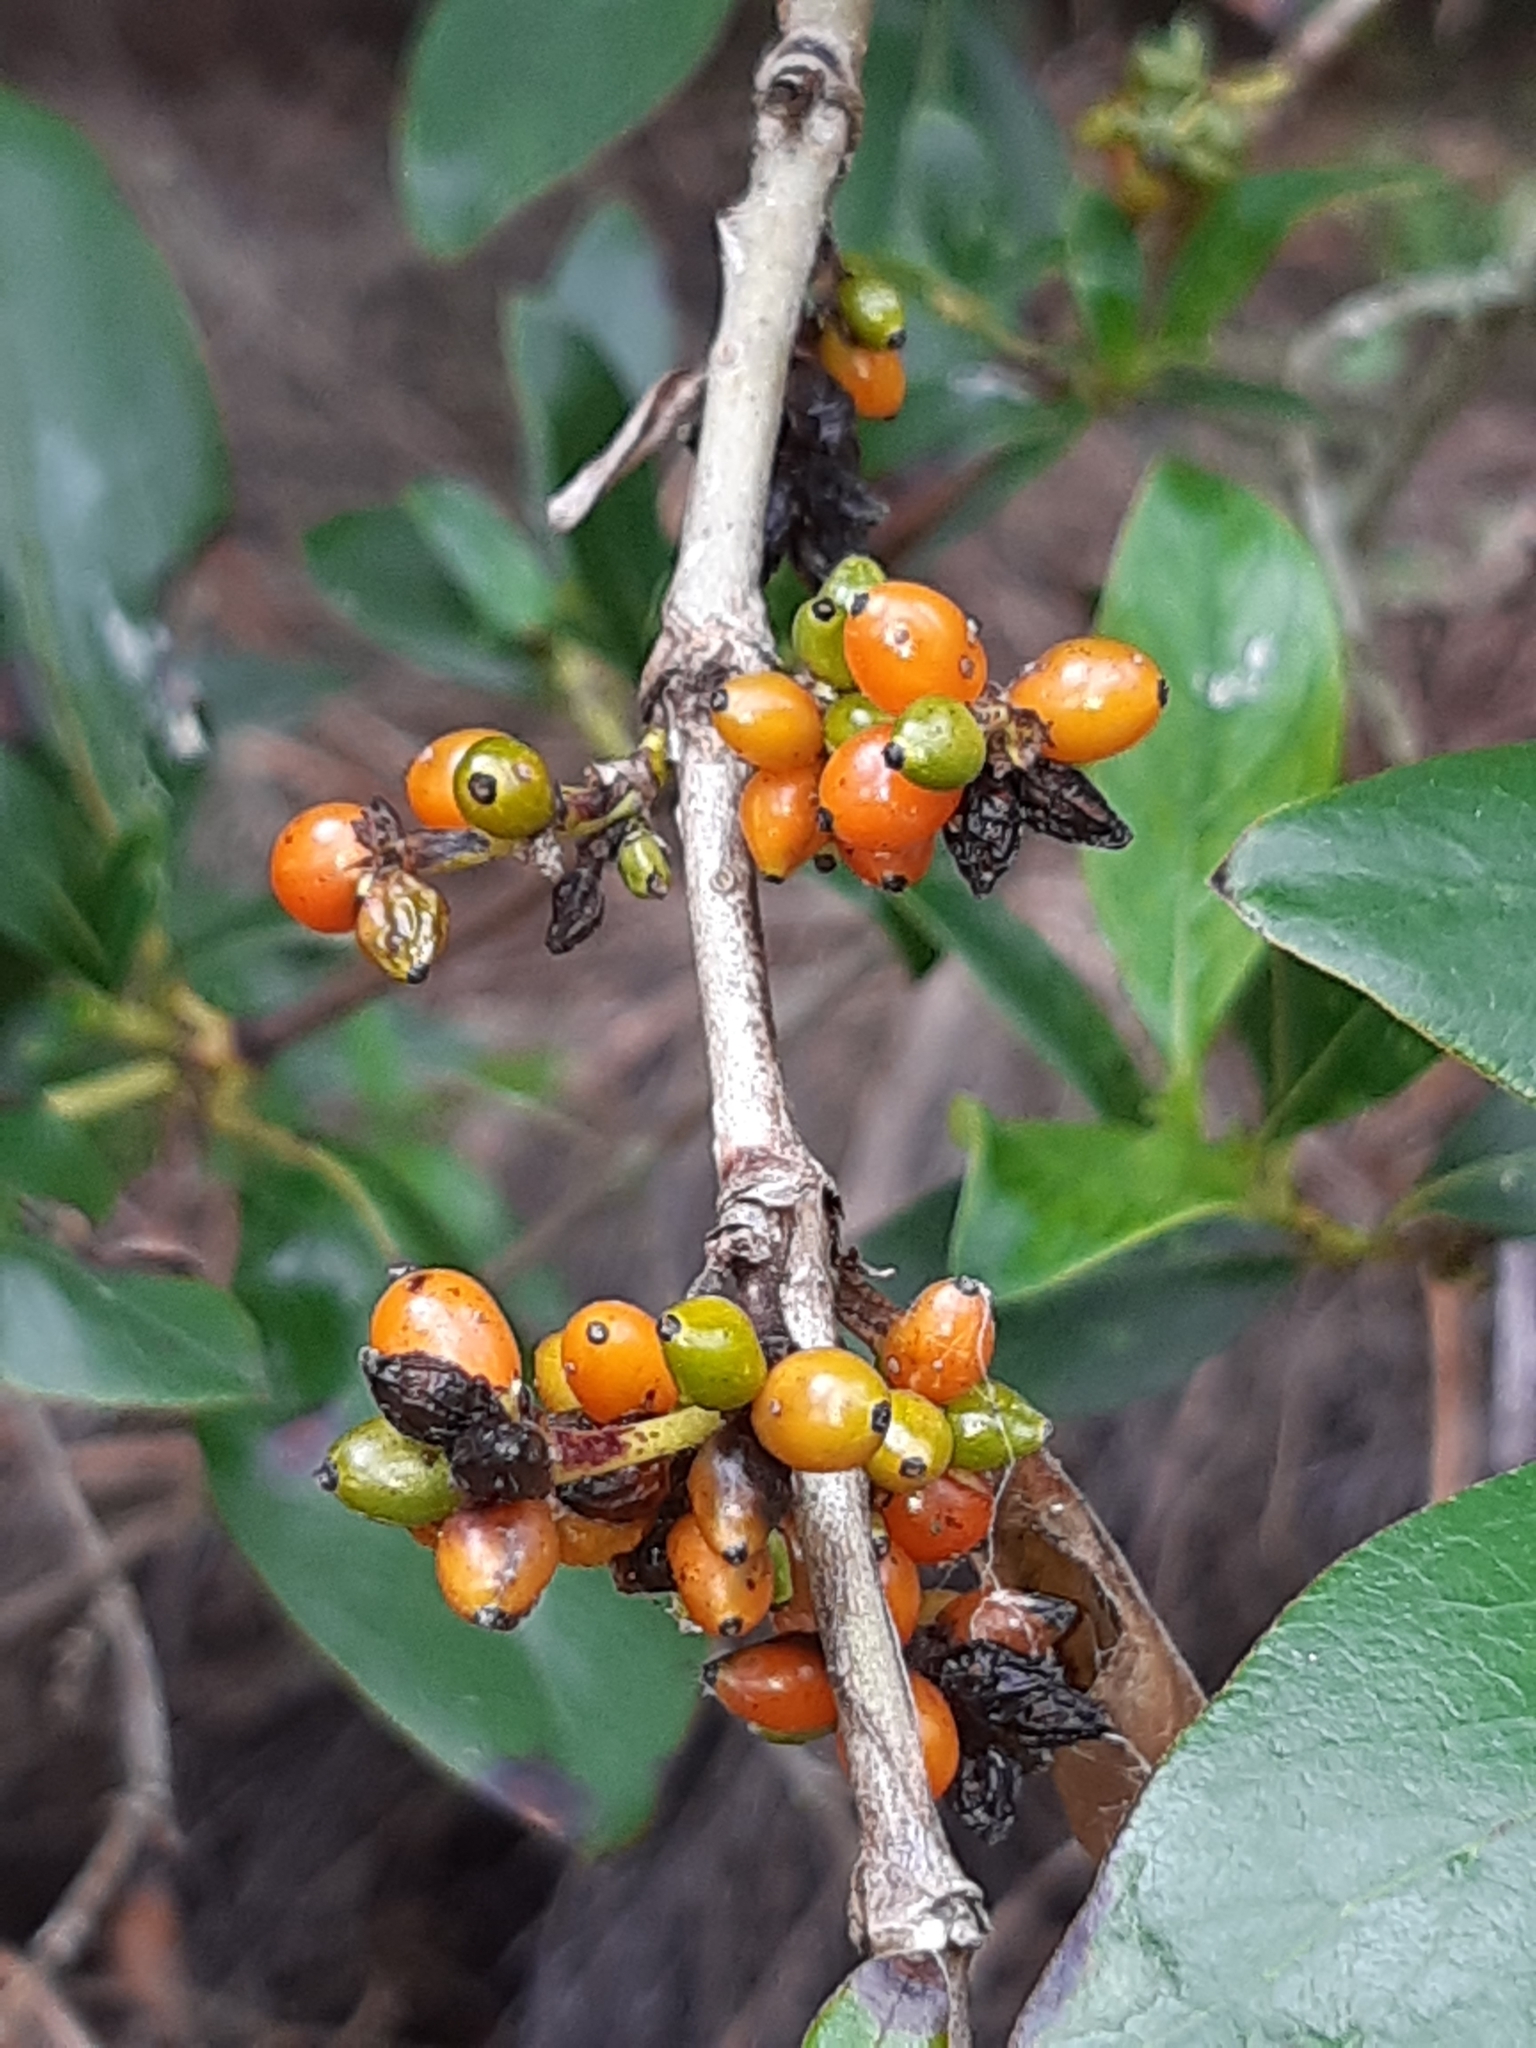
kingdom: Plantae
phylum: Tracheophyta
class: Magnoliopsida
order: Gentianales
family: Rubiaceae
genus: Coprosma
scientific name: Coprosma robusta
